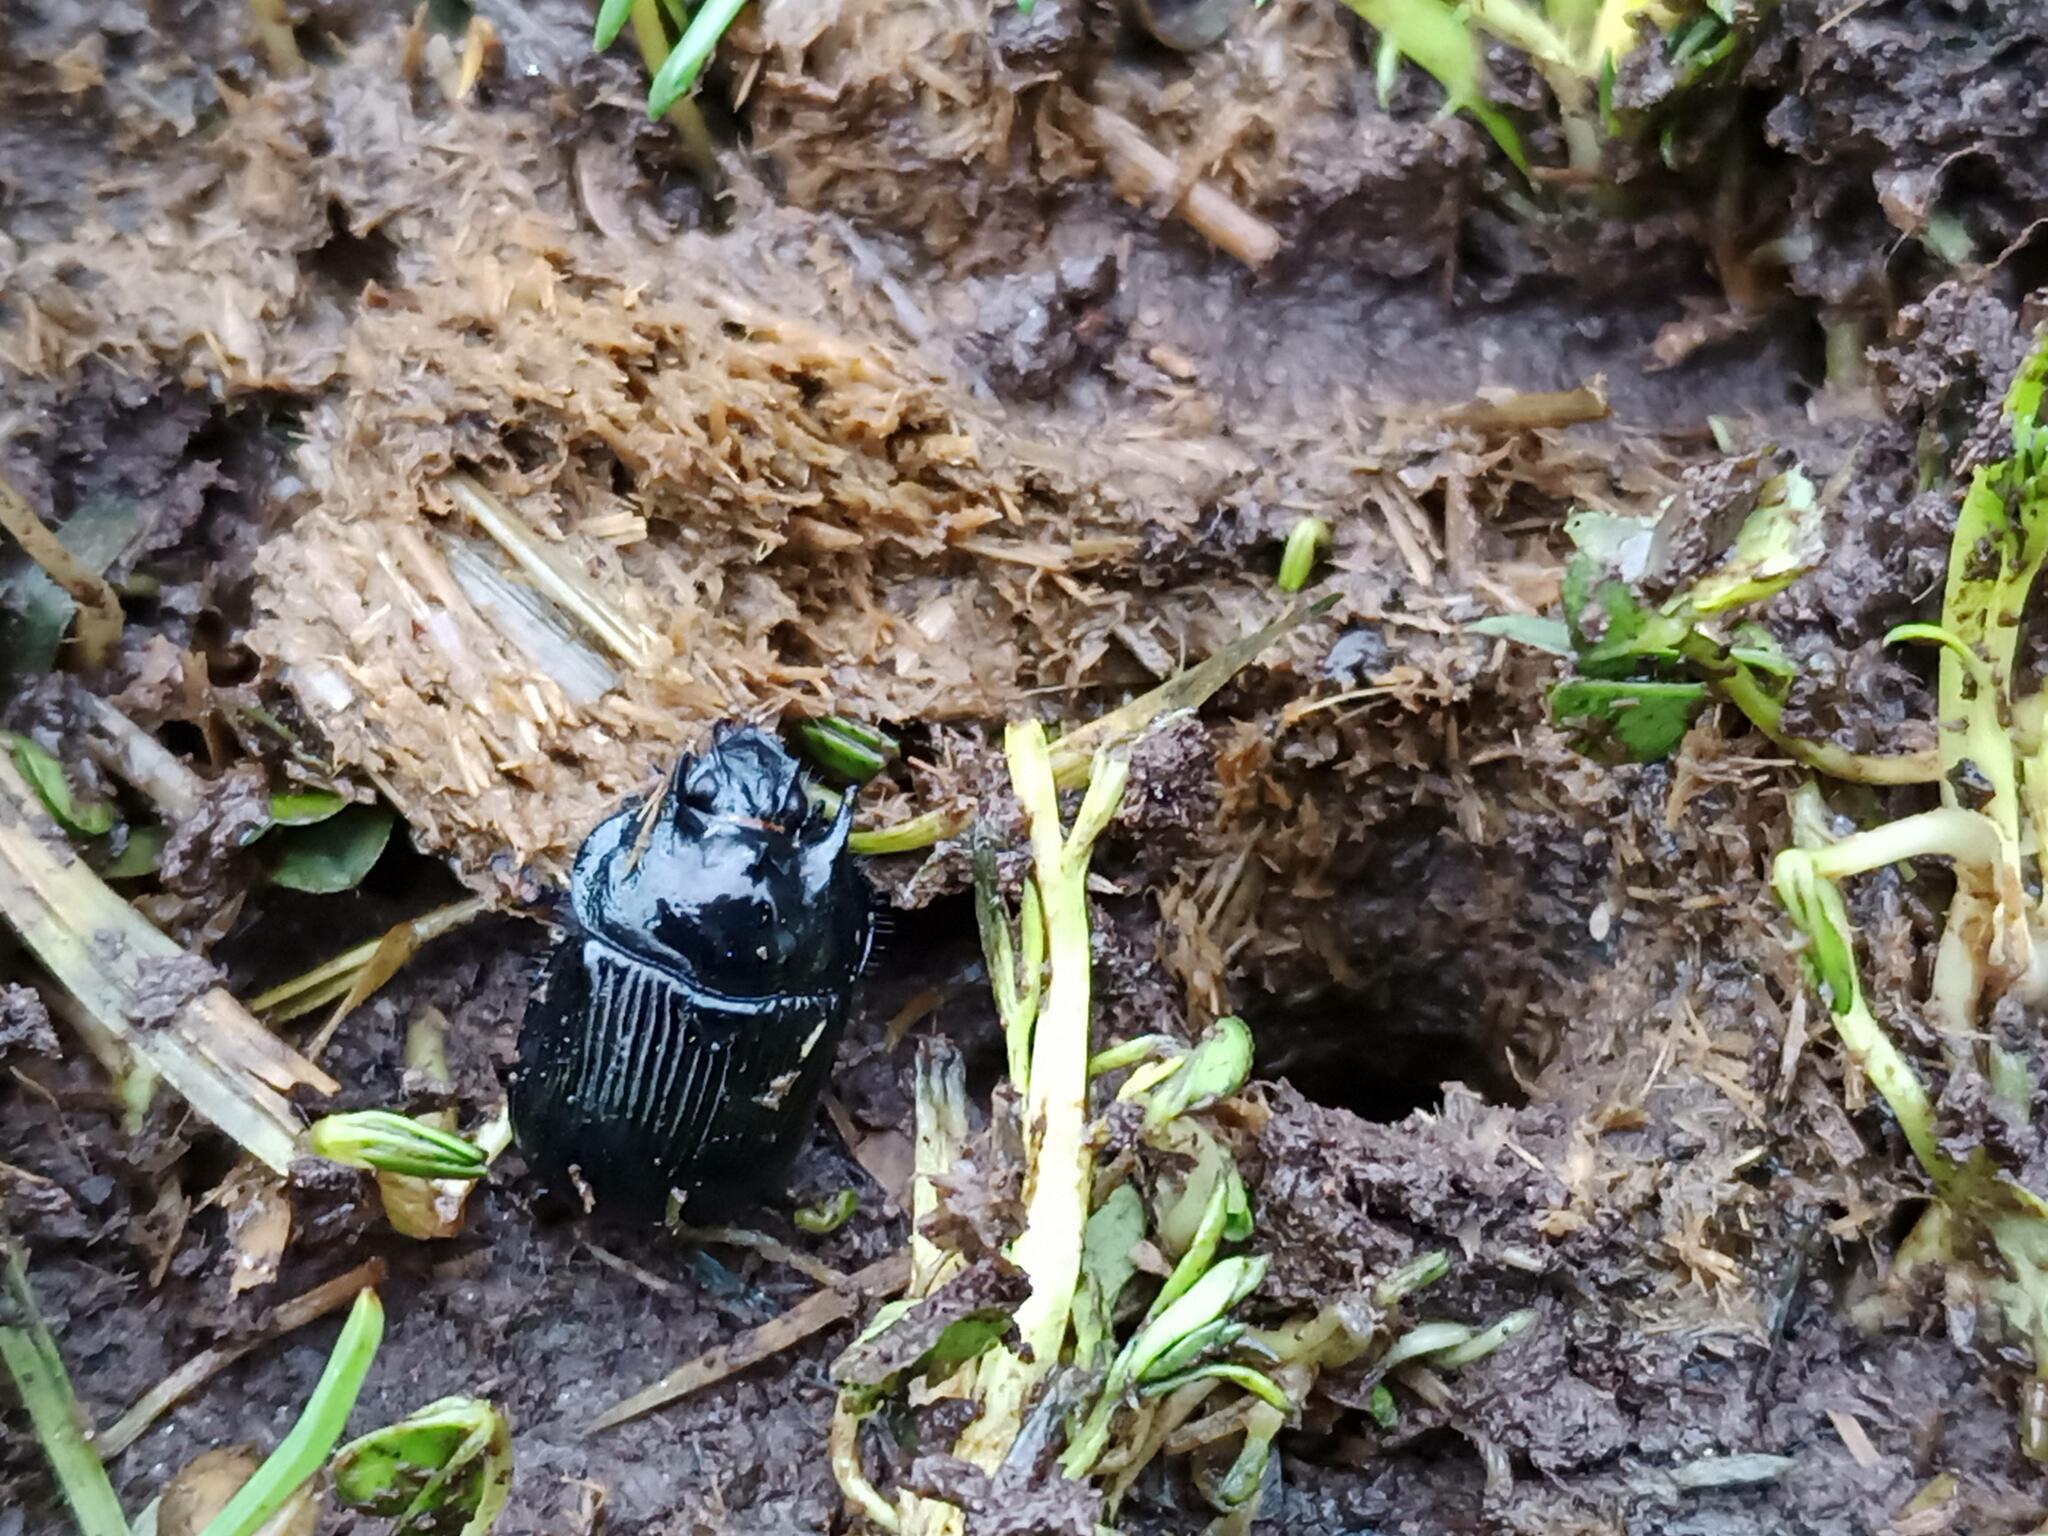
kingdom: Animalia
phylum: Arthropoda
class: Insecta
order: Coleoptera
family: Geotrupidae
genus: Typhaeus
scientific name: Typhaeus typhoeus
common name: Minotaur beetle
